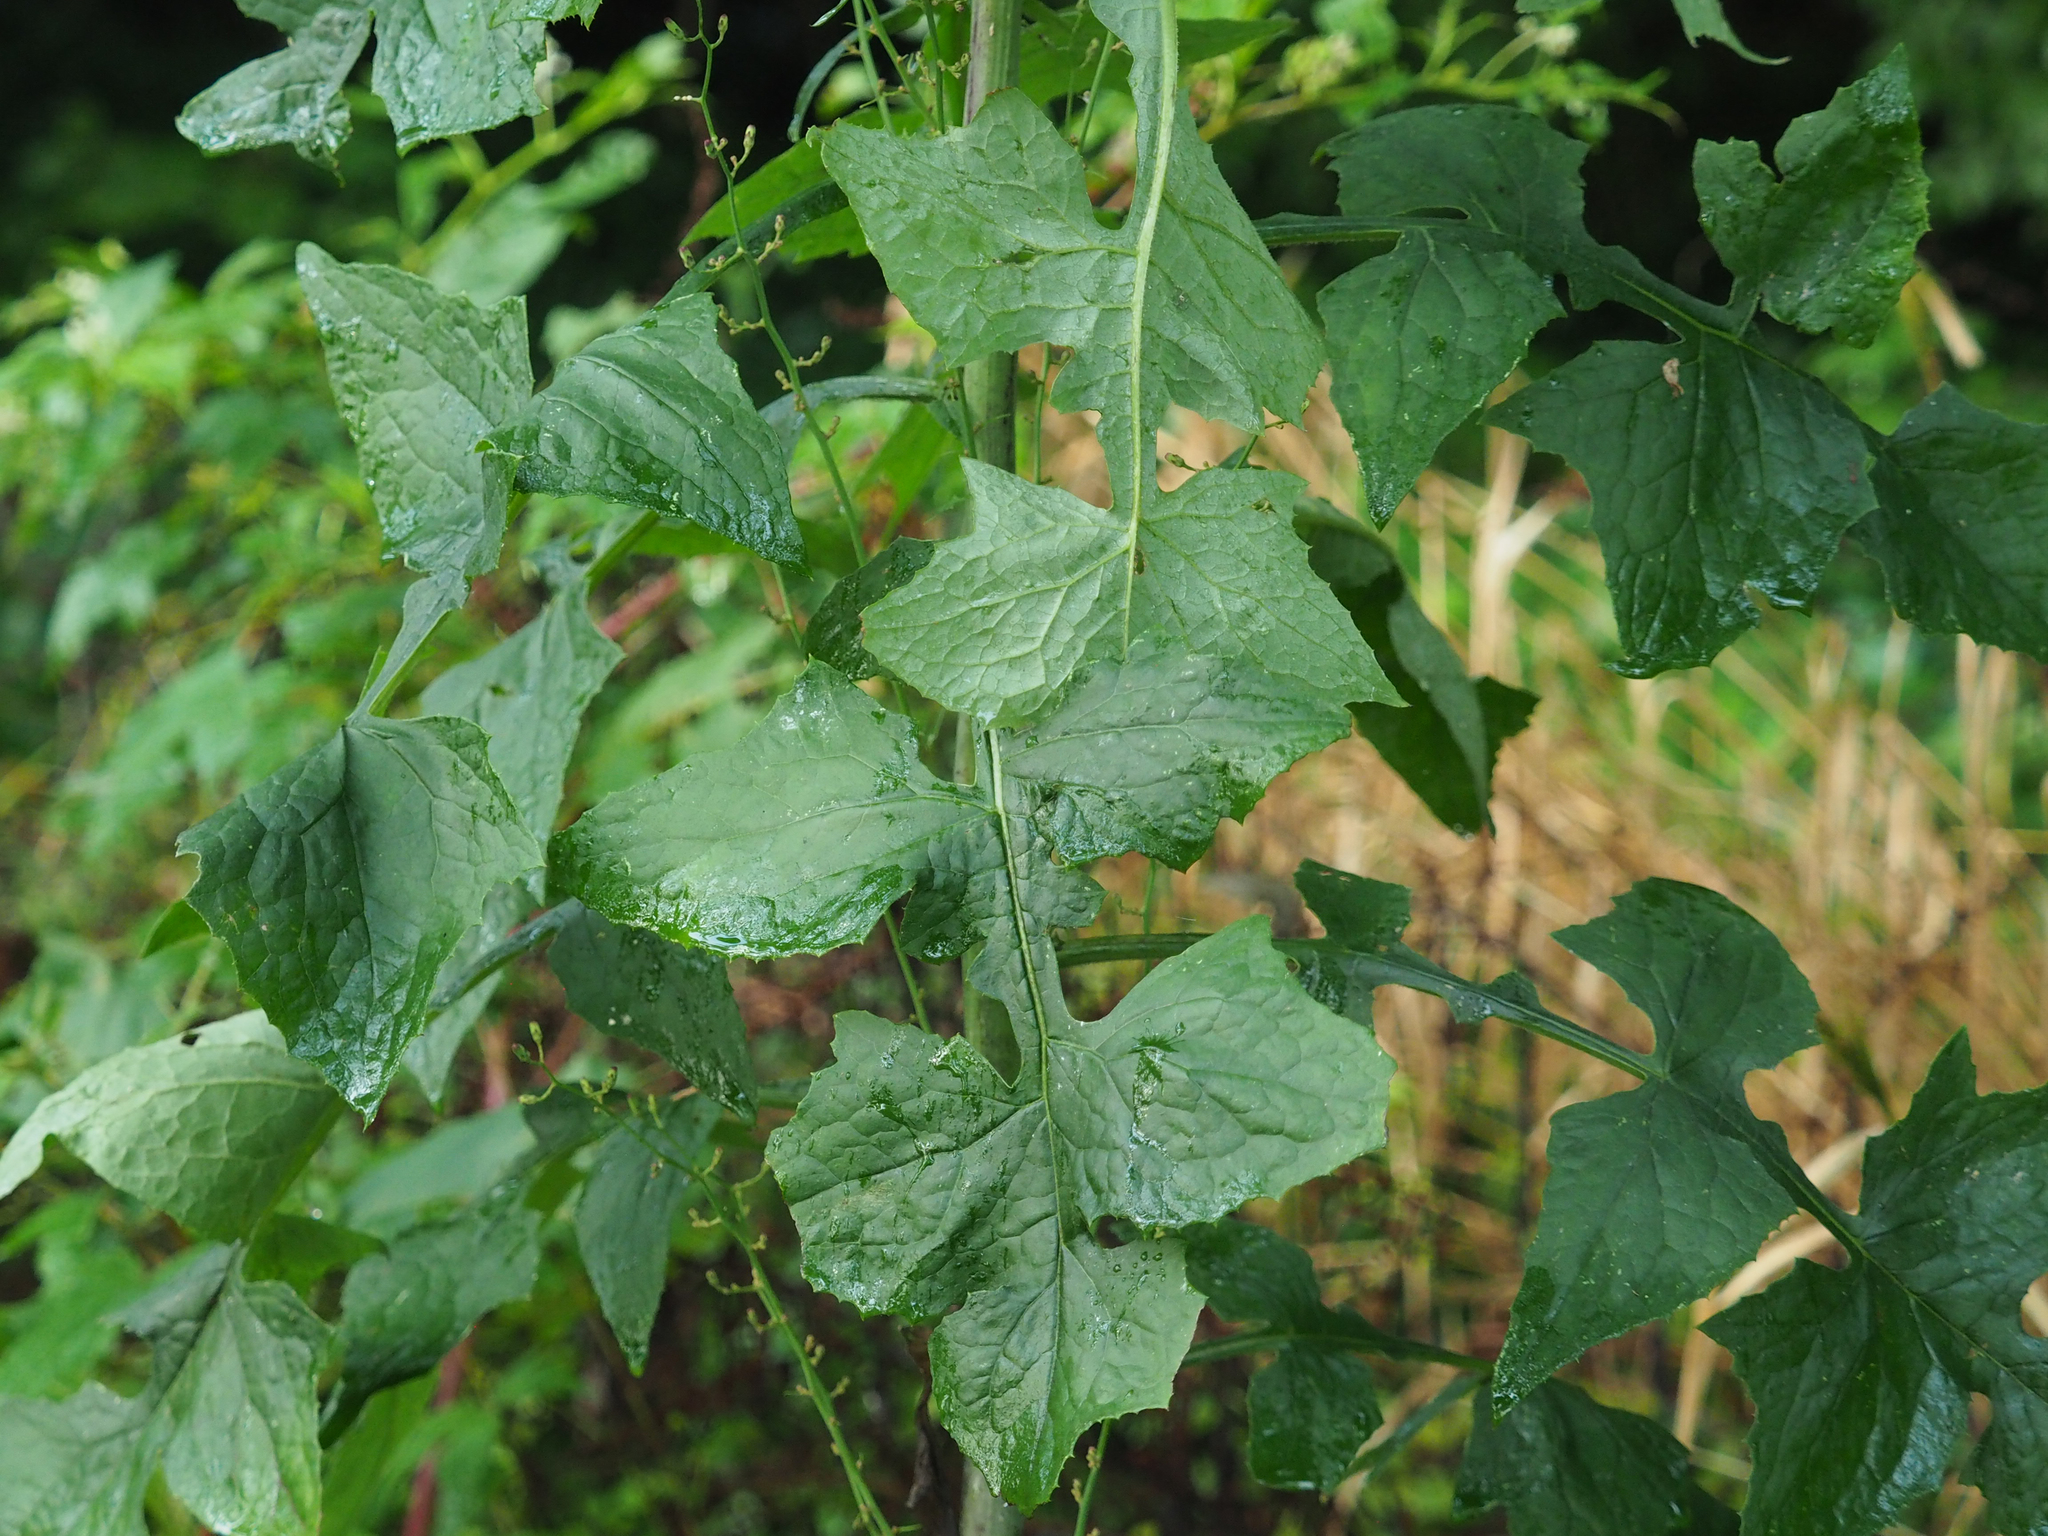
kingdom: Plantae
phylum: Tracheophyta
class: Magnoliopsida
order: Asterales
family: Asteraceae
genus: Lactuca
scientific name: Lactuca floridana
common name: Woodland lettuce
